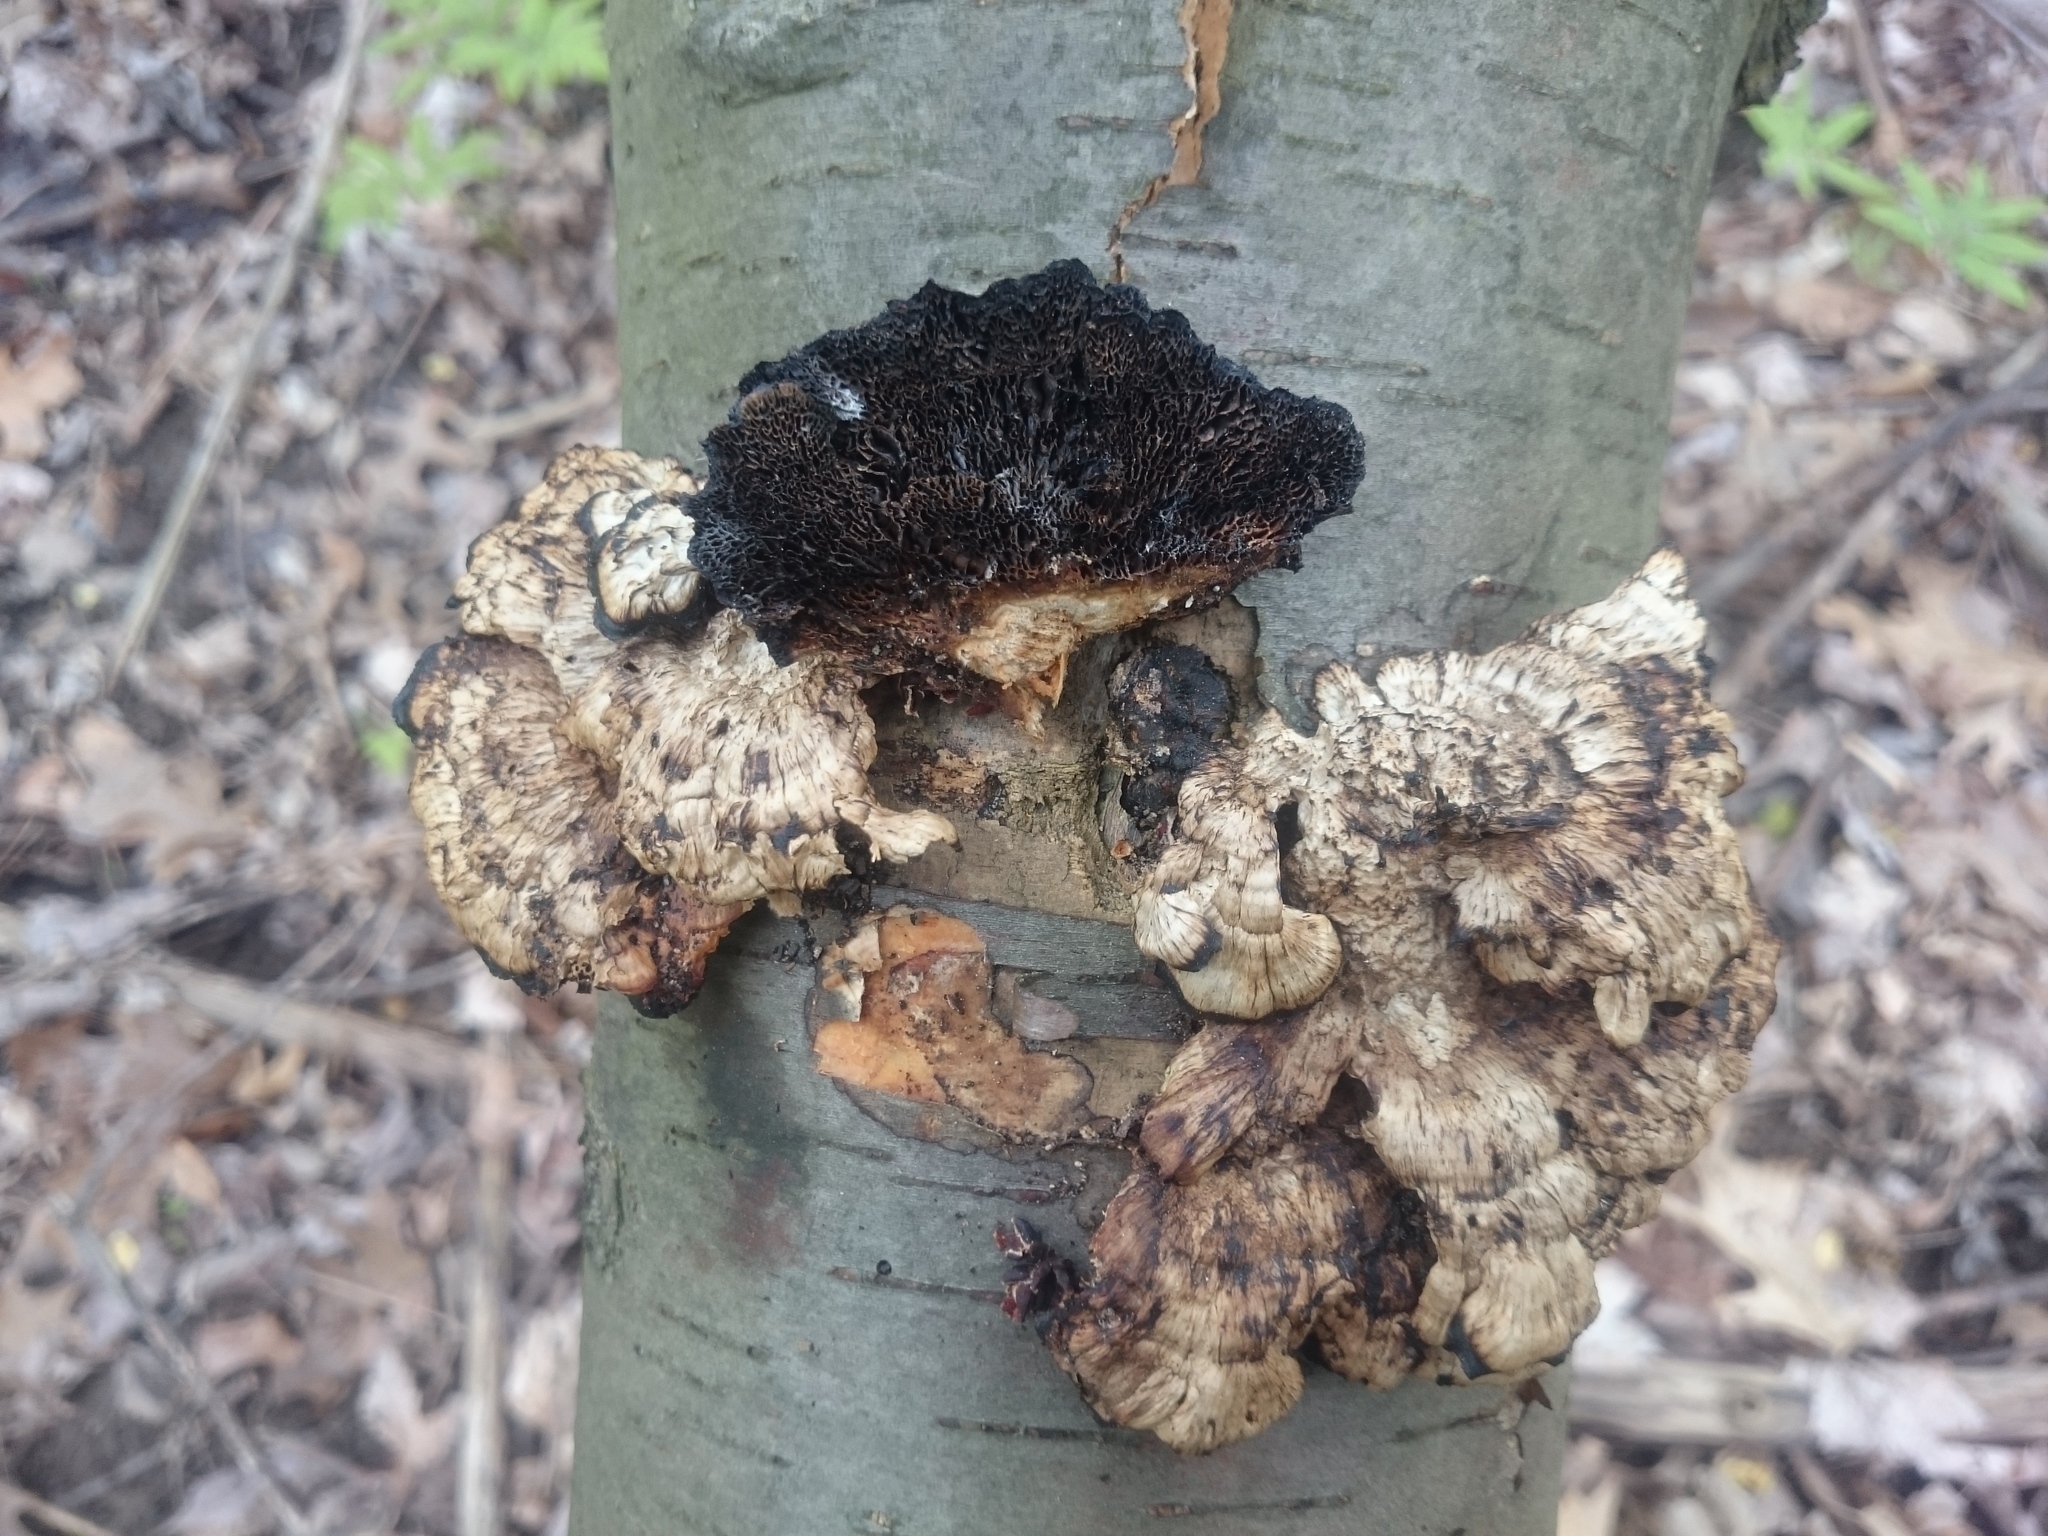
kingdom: Fungi
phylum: Basidiomycota
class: Agaricomycetes
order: Polyporales
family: Polyporaceae
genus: Daedaleopsis
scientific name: Daedaleopsis confragosa
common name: Blushing bracket
